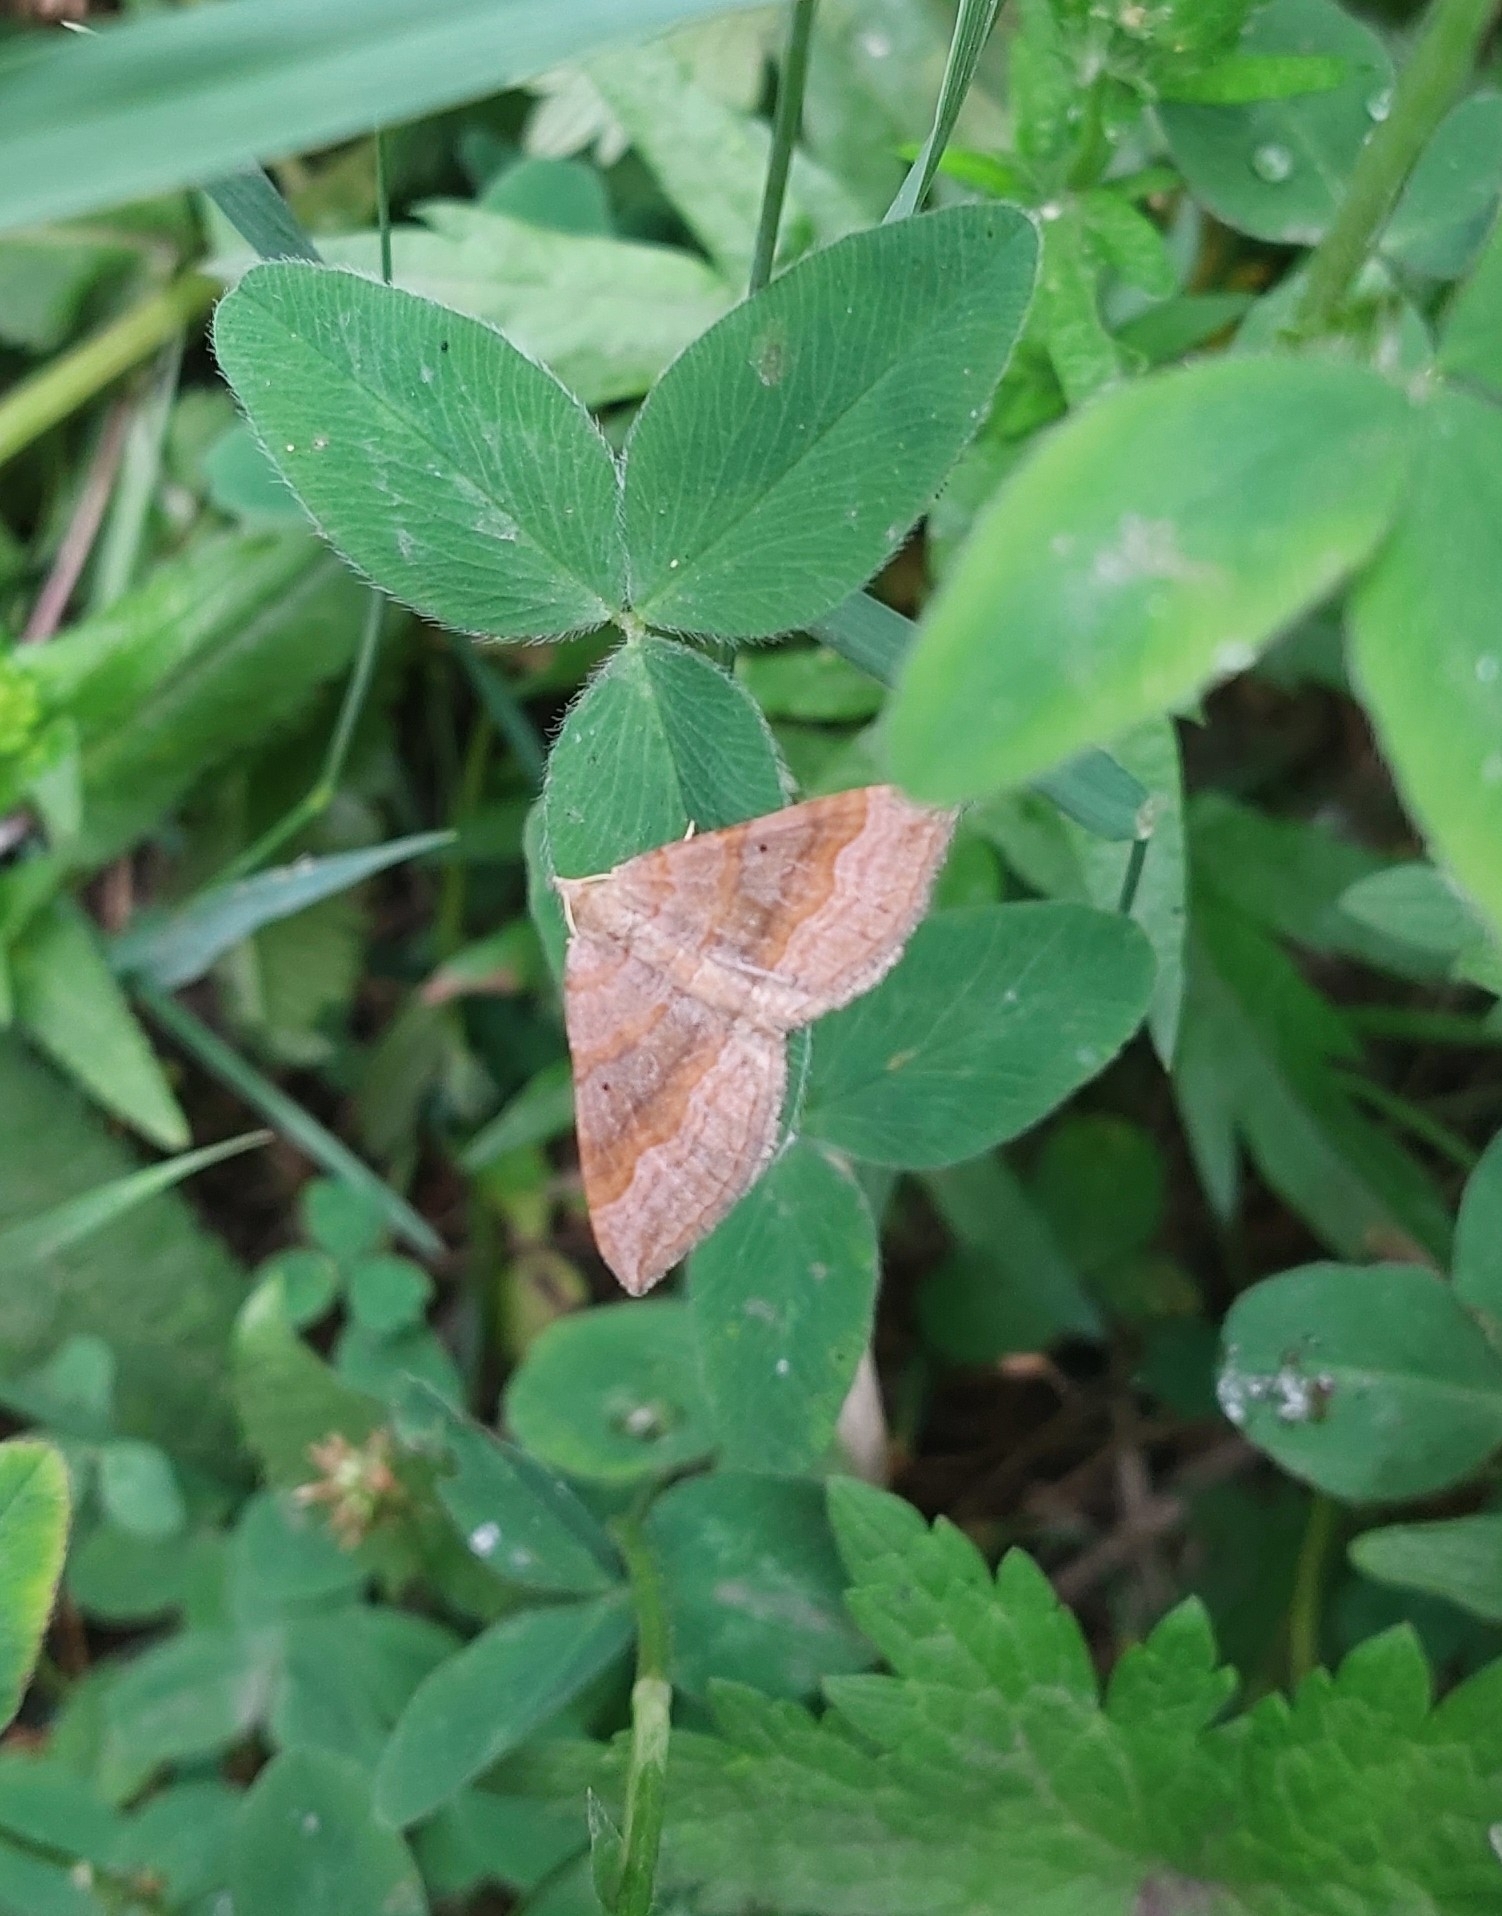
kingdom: Animalia
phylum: Arthropoda
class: Insecta
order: Lepidoptera
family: Geometridae
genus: Scotopteryx
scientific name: Scotopteryx chenopodiata
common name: Shaded broad-bar
